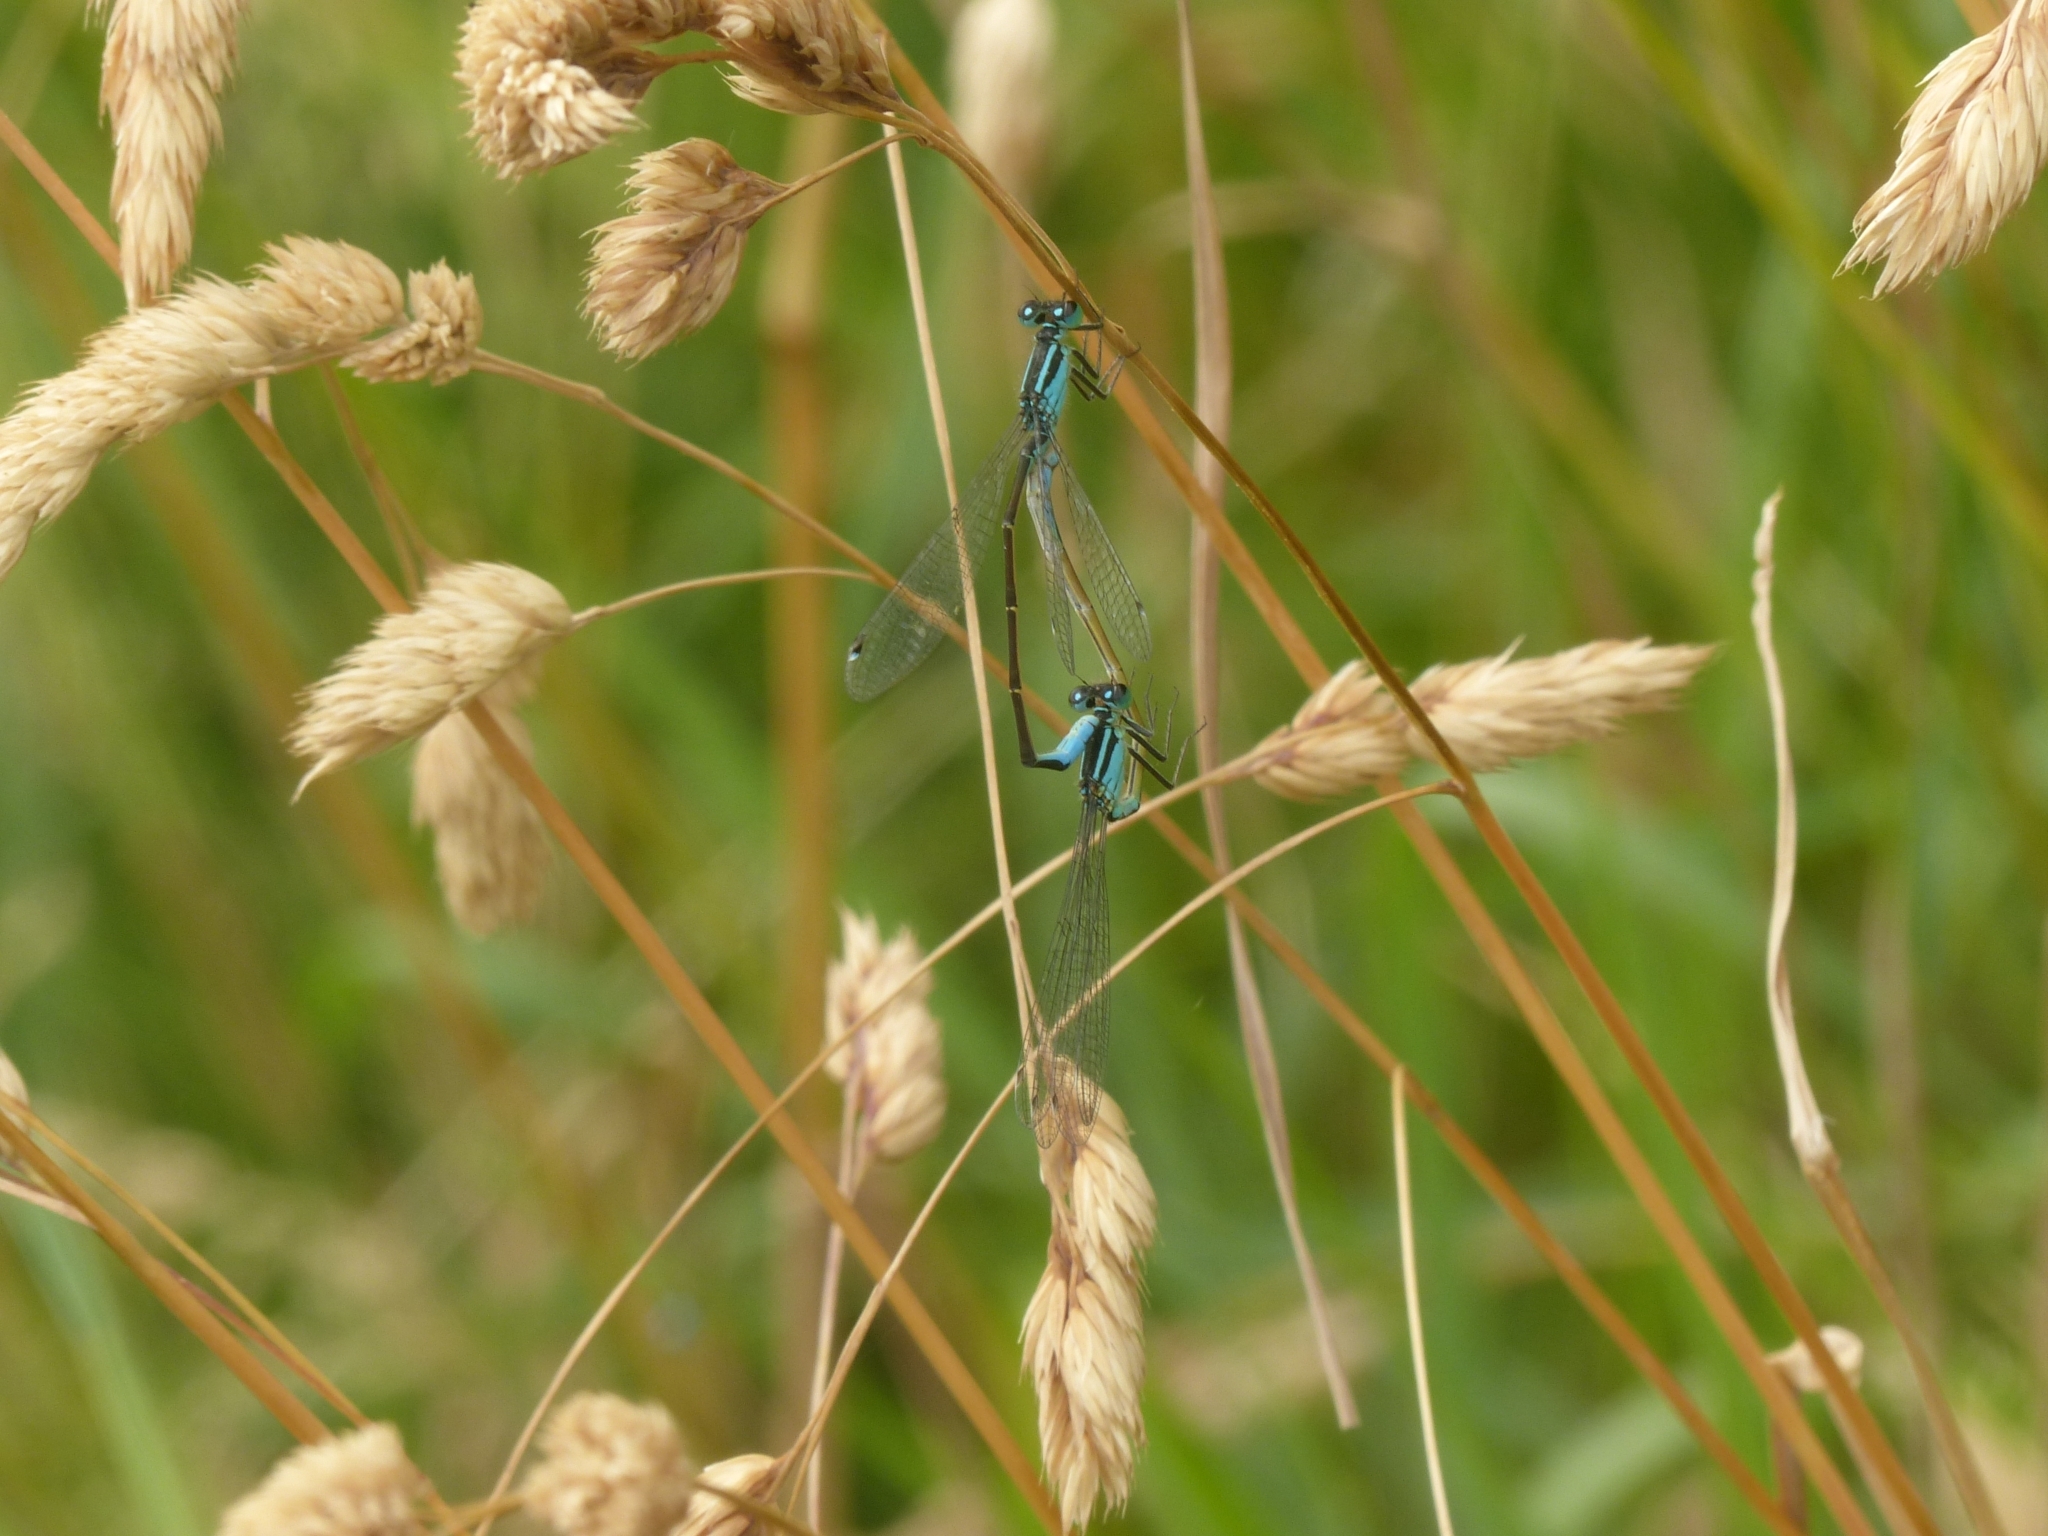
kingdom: Animalia
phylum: Arthropoda
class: Insecta
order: Odonata
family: Coenagrionidae
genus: Ischnura
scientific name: Ischnura elegans
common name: Blue-tailed damselfly
